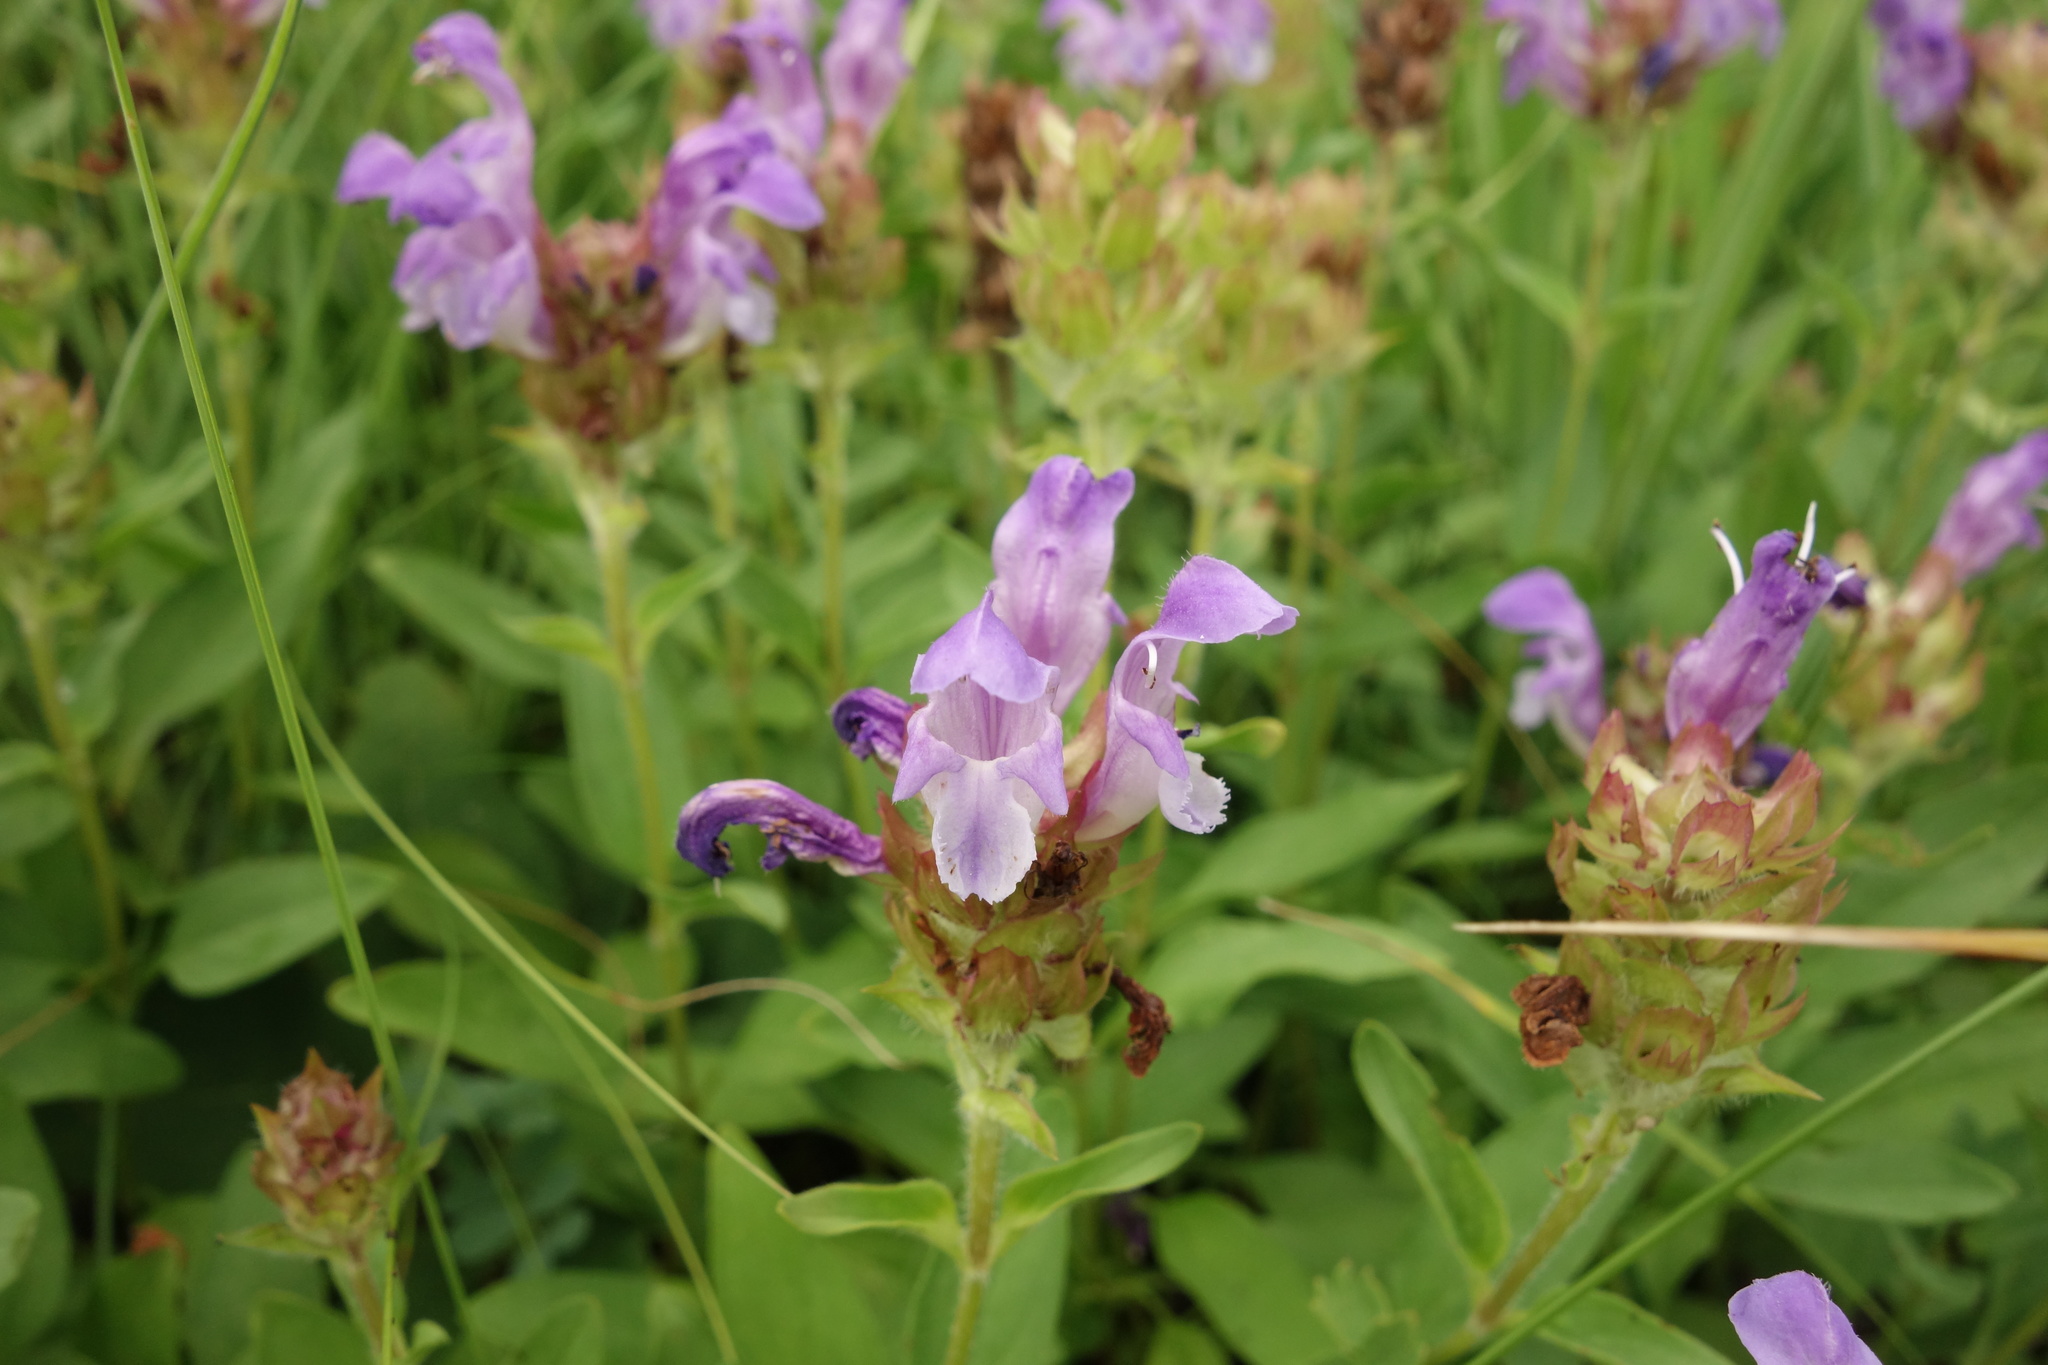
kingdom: Plantae
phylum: Tracheophyta
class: Magnoliopsida
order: Lamiales
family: Lamiaceae
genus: Prunella
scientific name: Prunella grandiflora
